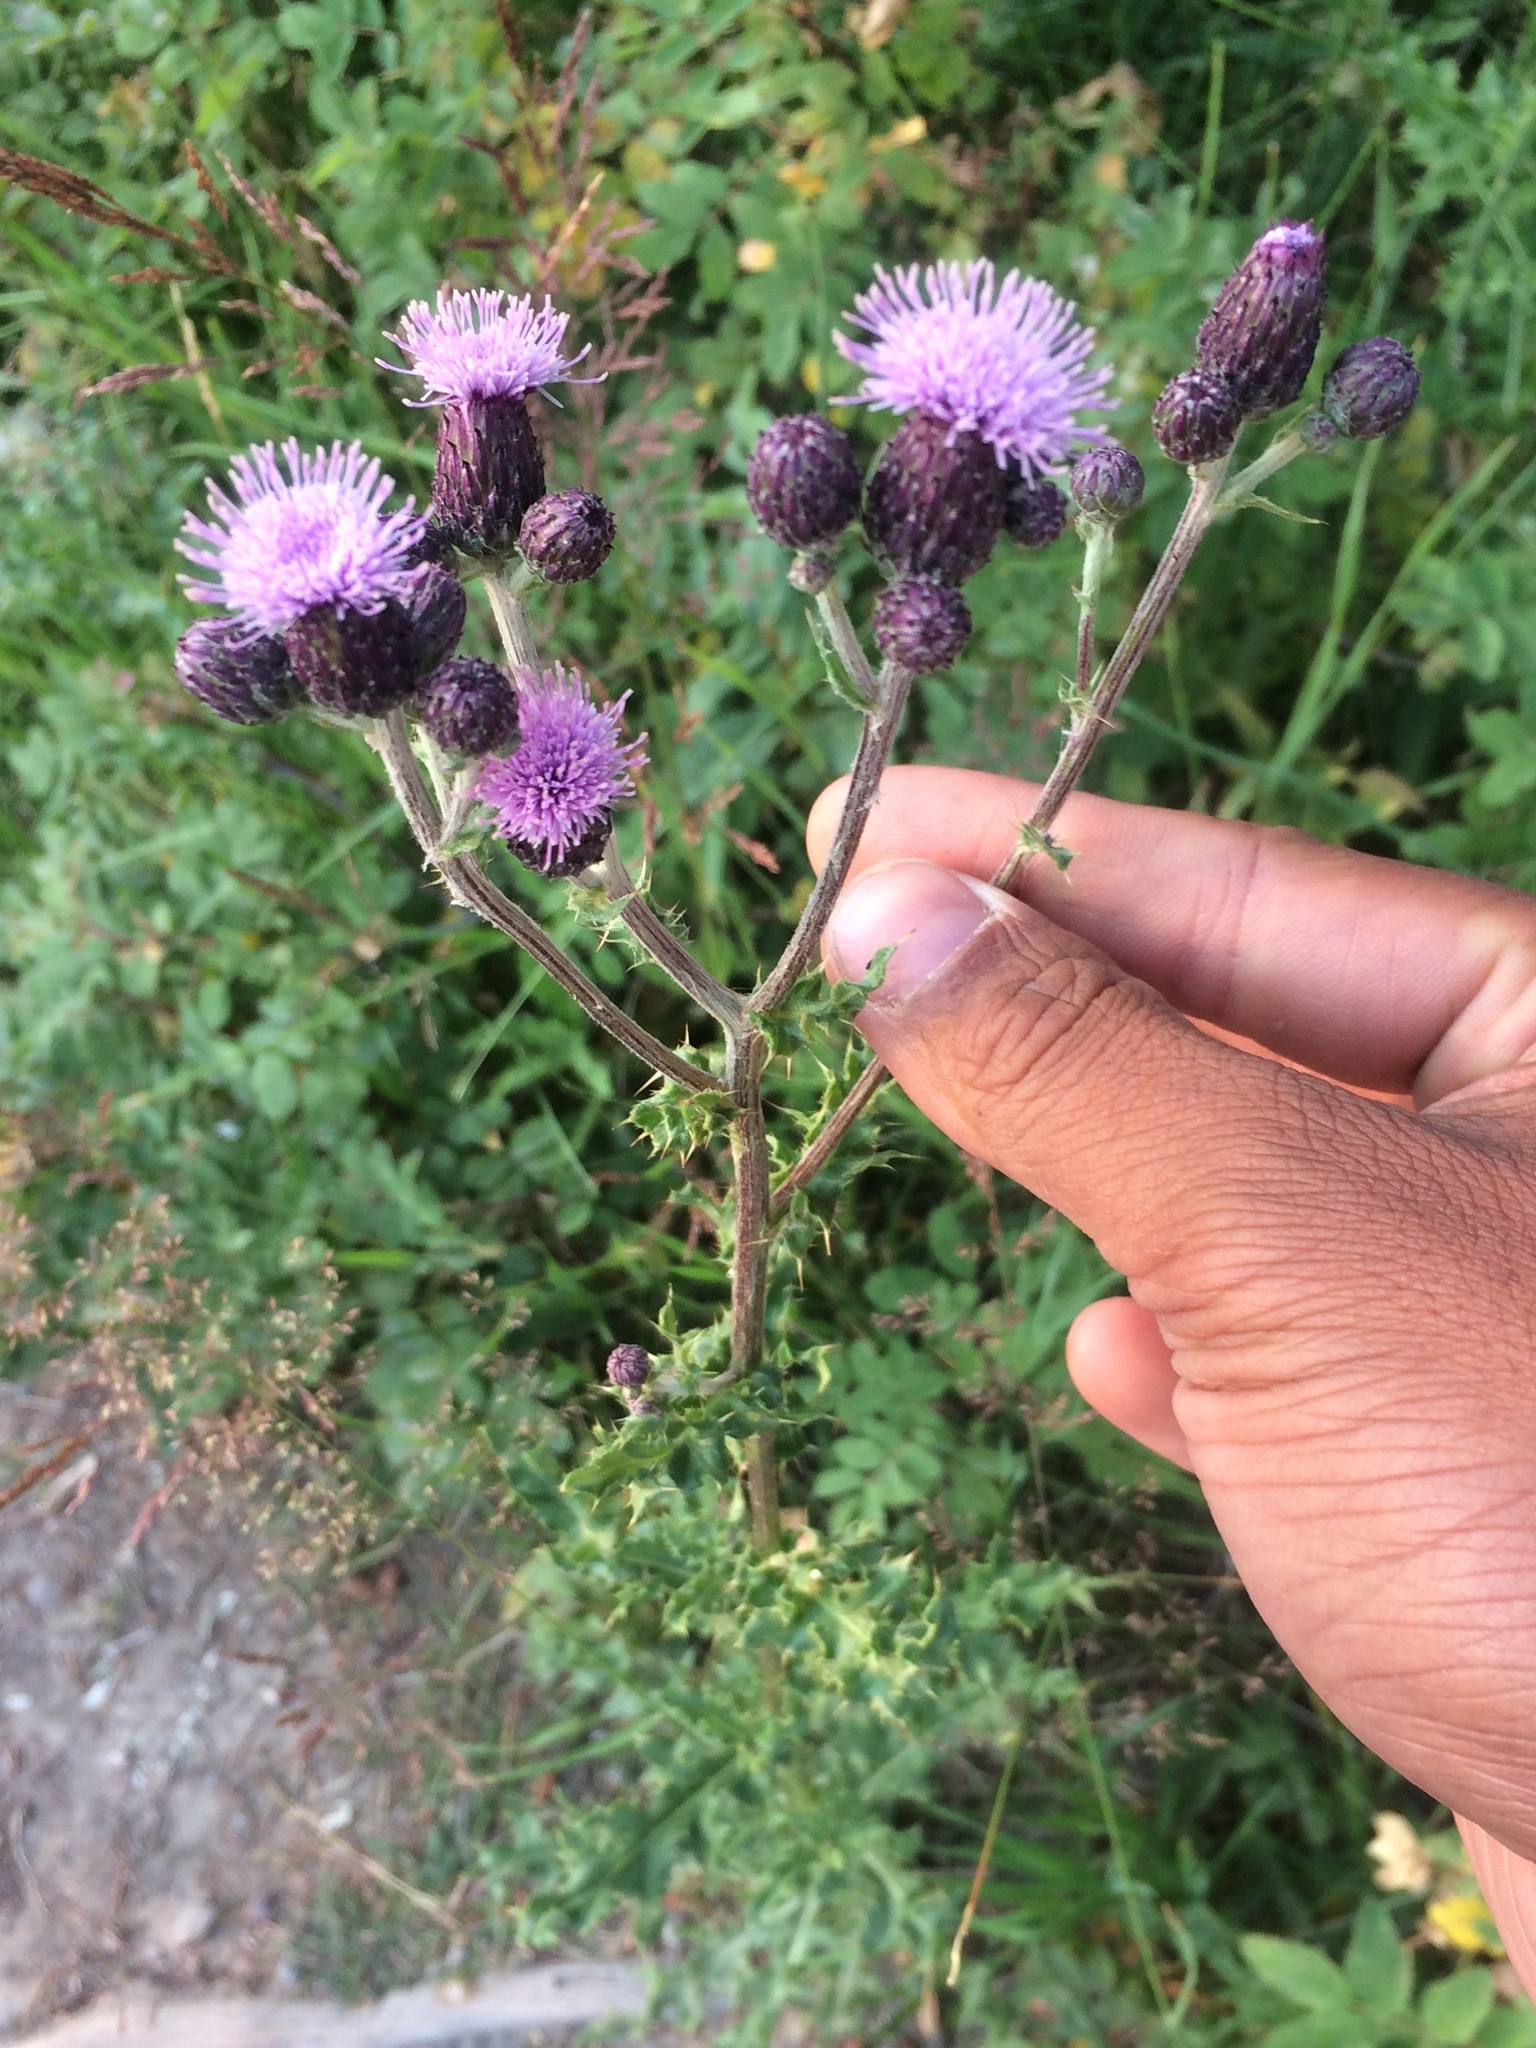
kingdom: Plantae
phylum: Tracheophyta
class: Magnoliopsida
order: Asterales
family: Asteraceae
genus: Cirsium
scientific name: Cirsium arvense
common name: Creeping thistle
